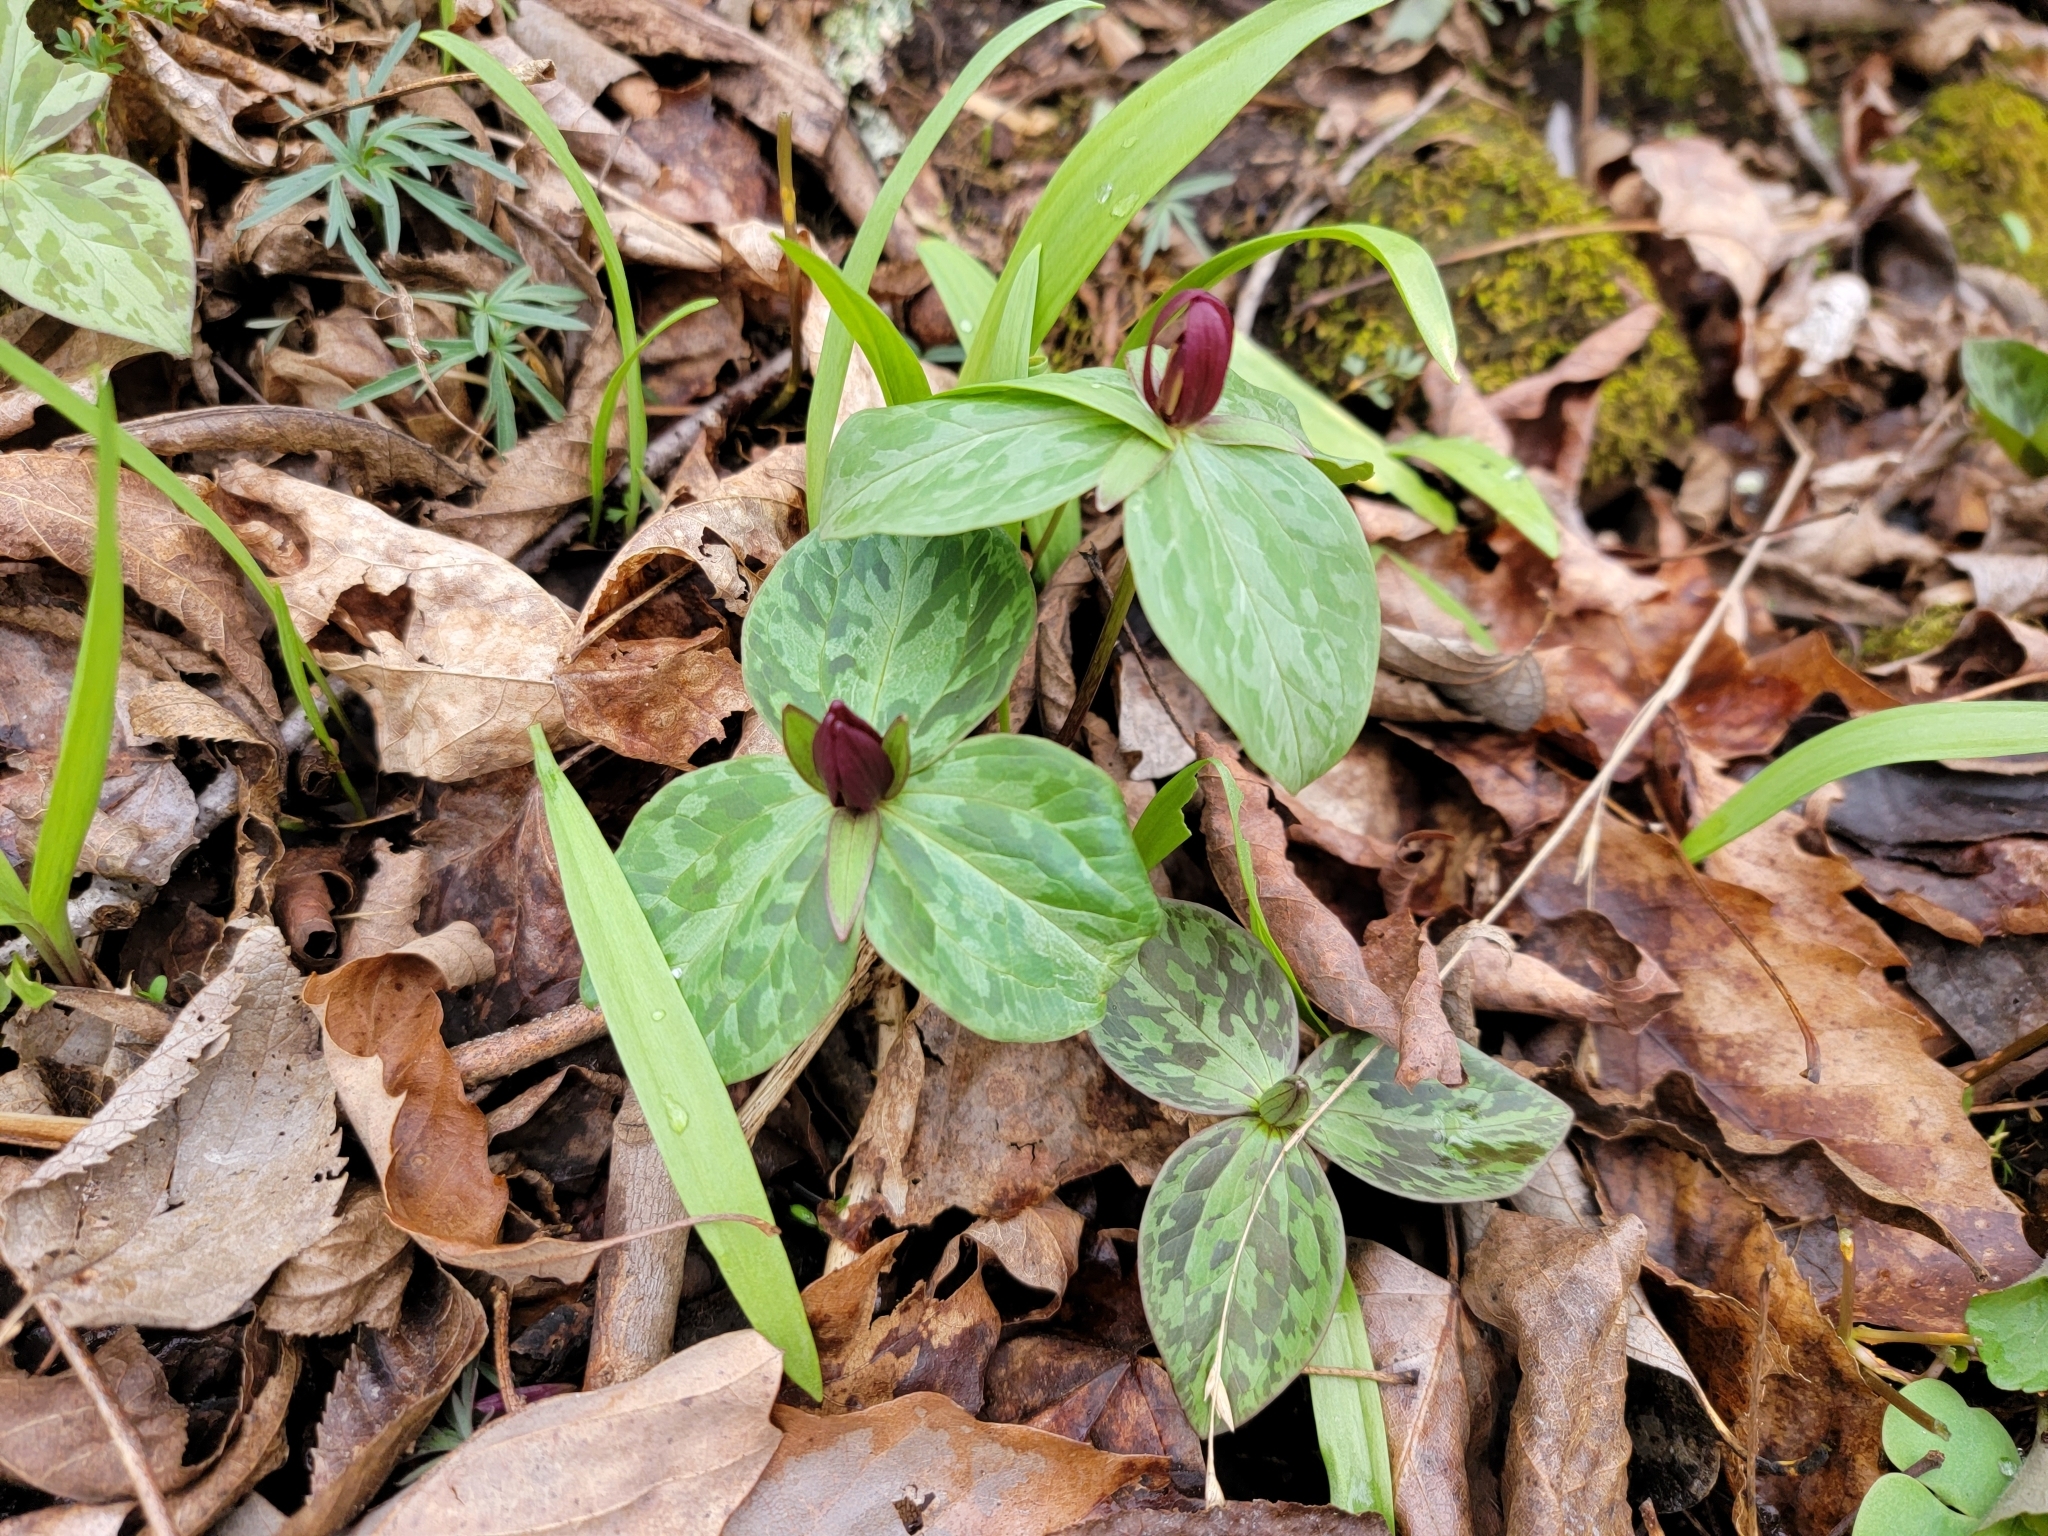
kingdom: Plantae
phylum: Tracheophyta
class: Liliopsida
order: Liliales
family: Melanthiaceae
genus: Trillium
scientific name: Trillium sessile
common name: Sessile trillium
